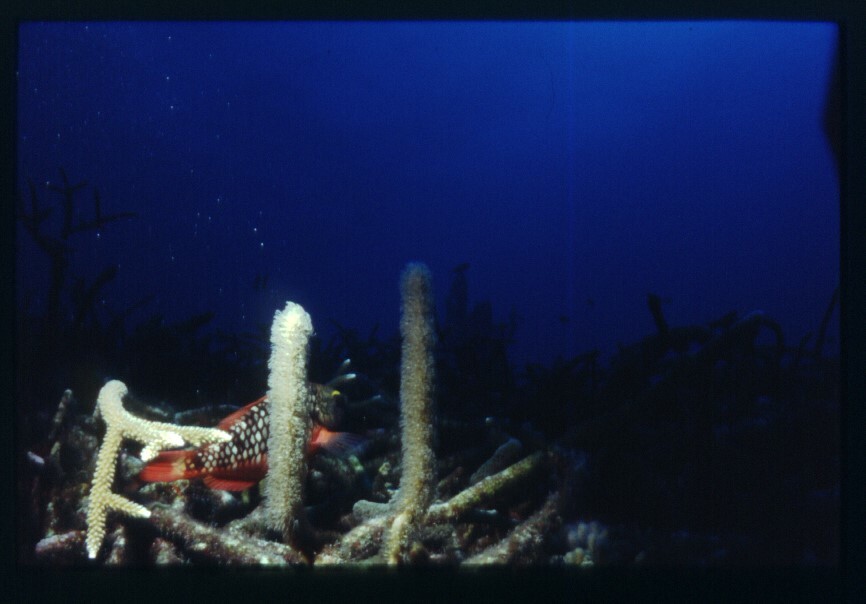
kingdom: Animalia
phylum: Chordata
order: Perciformes
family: Scaridae
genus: Sparisoma
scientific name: Sparisoma viride
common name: Stoplight parrotfish
